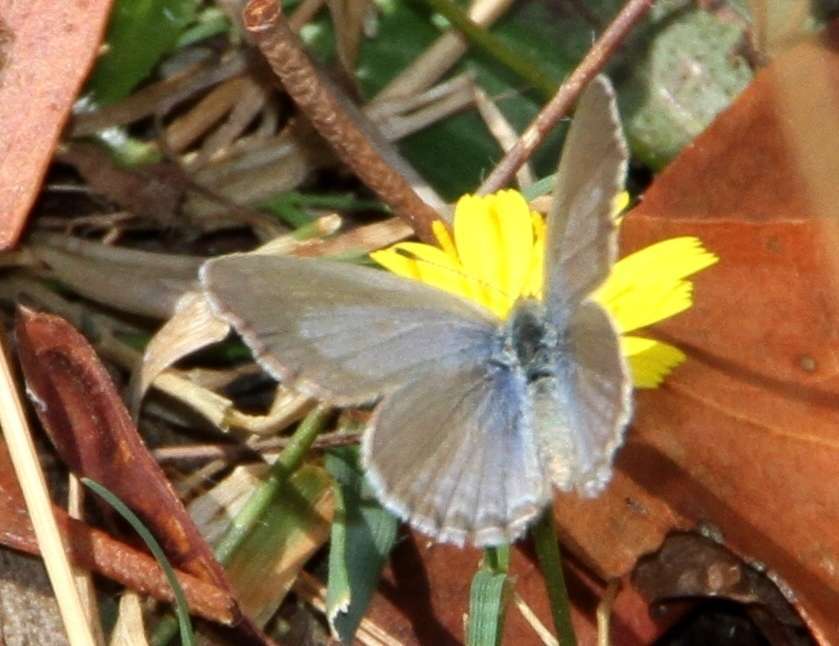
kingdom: Animalia
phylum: Arthropoda
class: Insecta
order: Lepidoptera
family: Lycaenidae
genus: Zizina
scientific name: Zizina labradus
